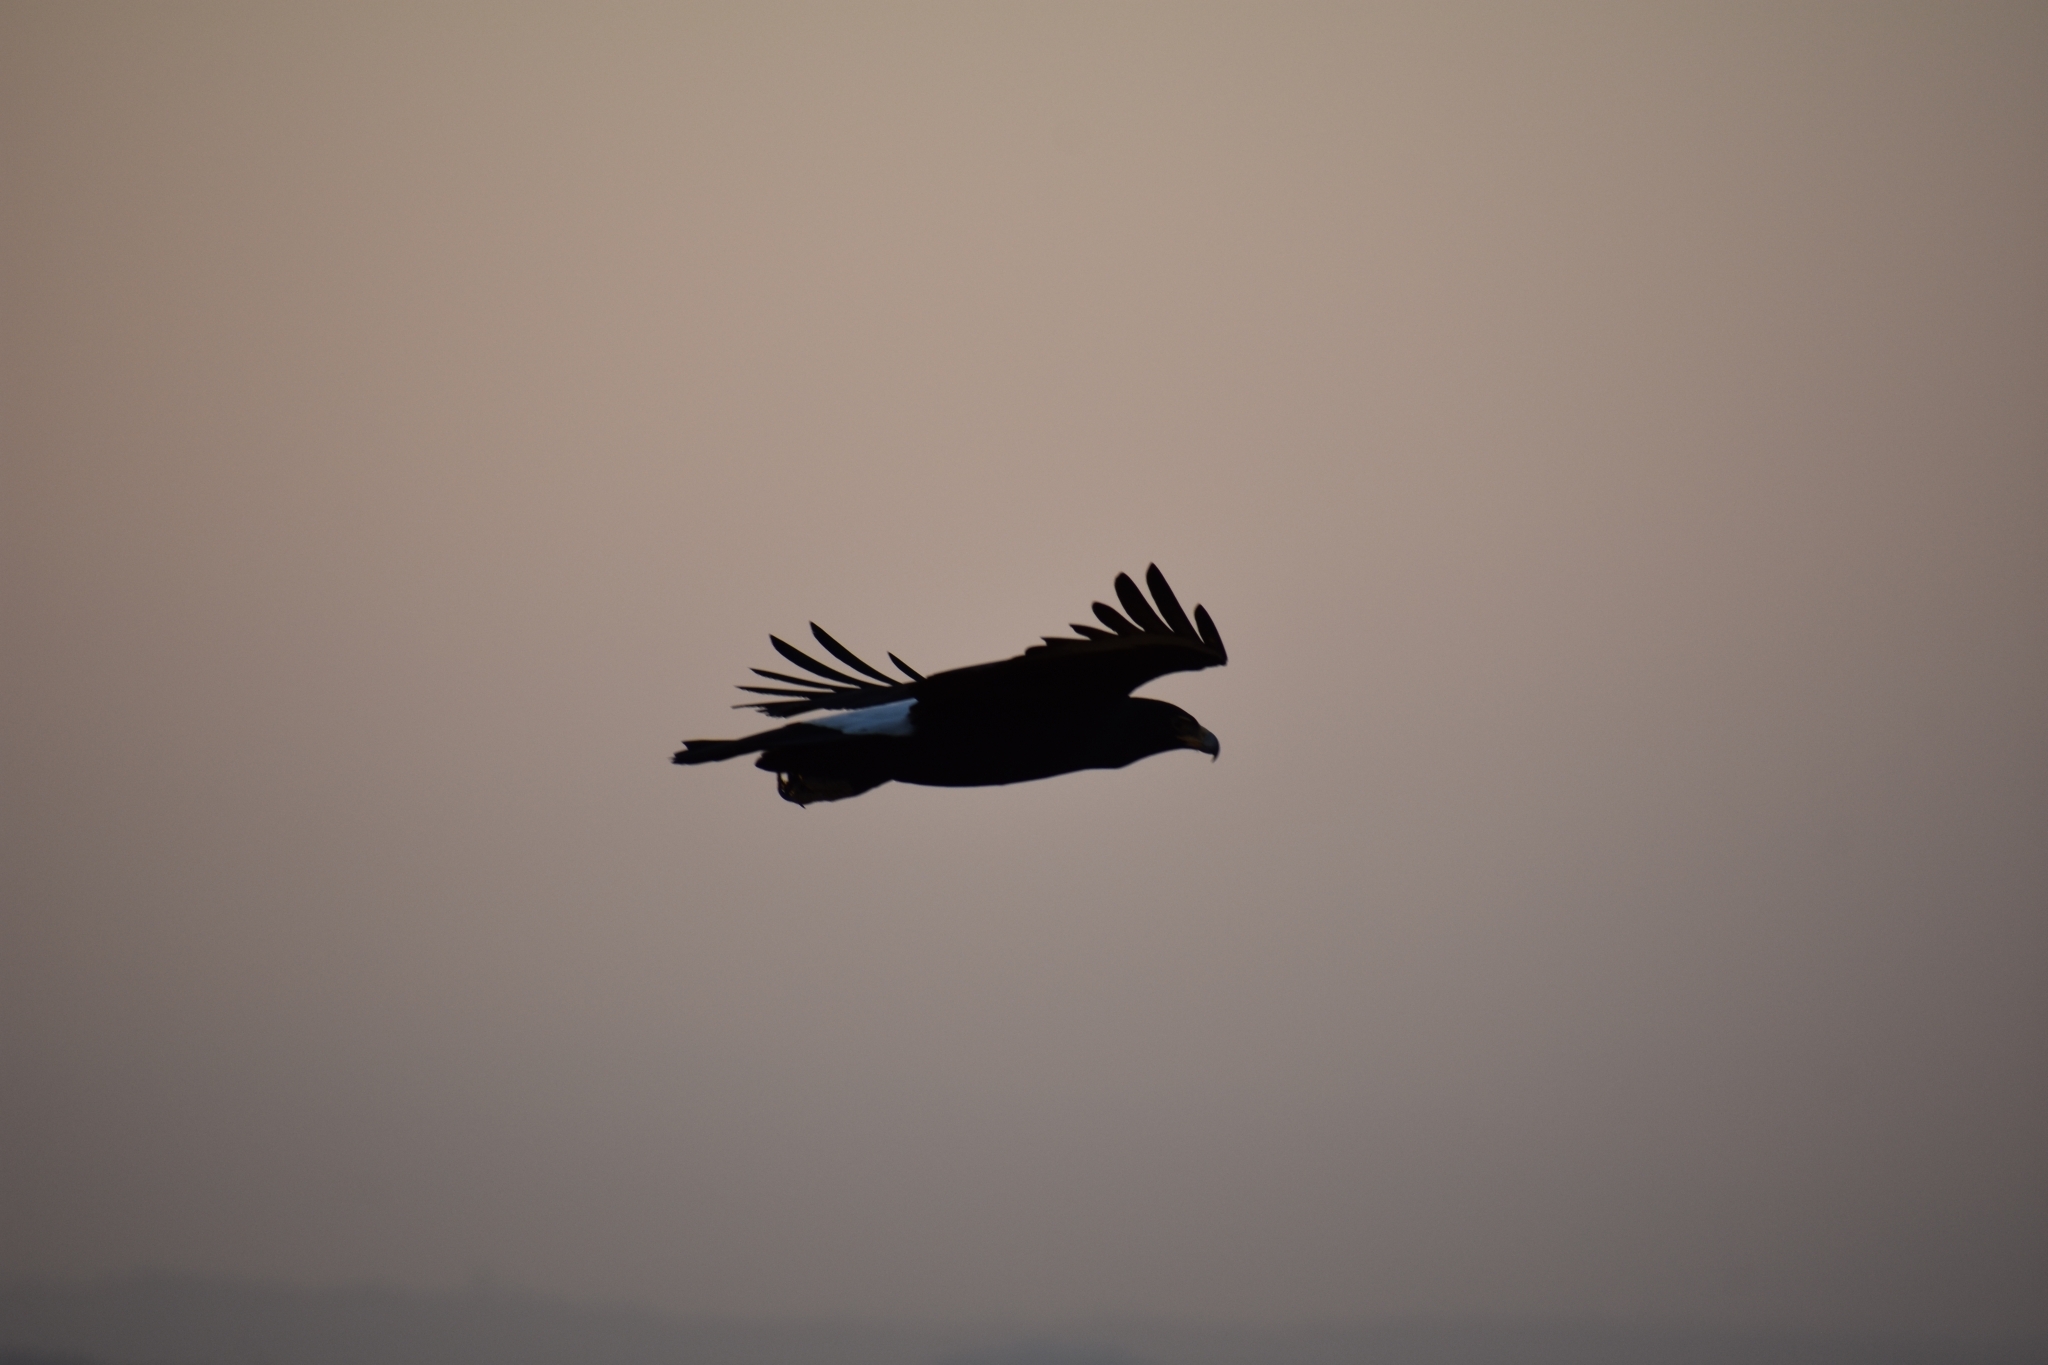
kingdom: Animalia
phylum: Chordata
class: Aves
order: Accipitriformes
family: Accipitridae
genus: Aquila
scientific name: Aquila verreauxii
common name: Verreaux's eagle
